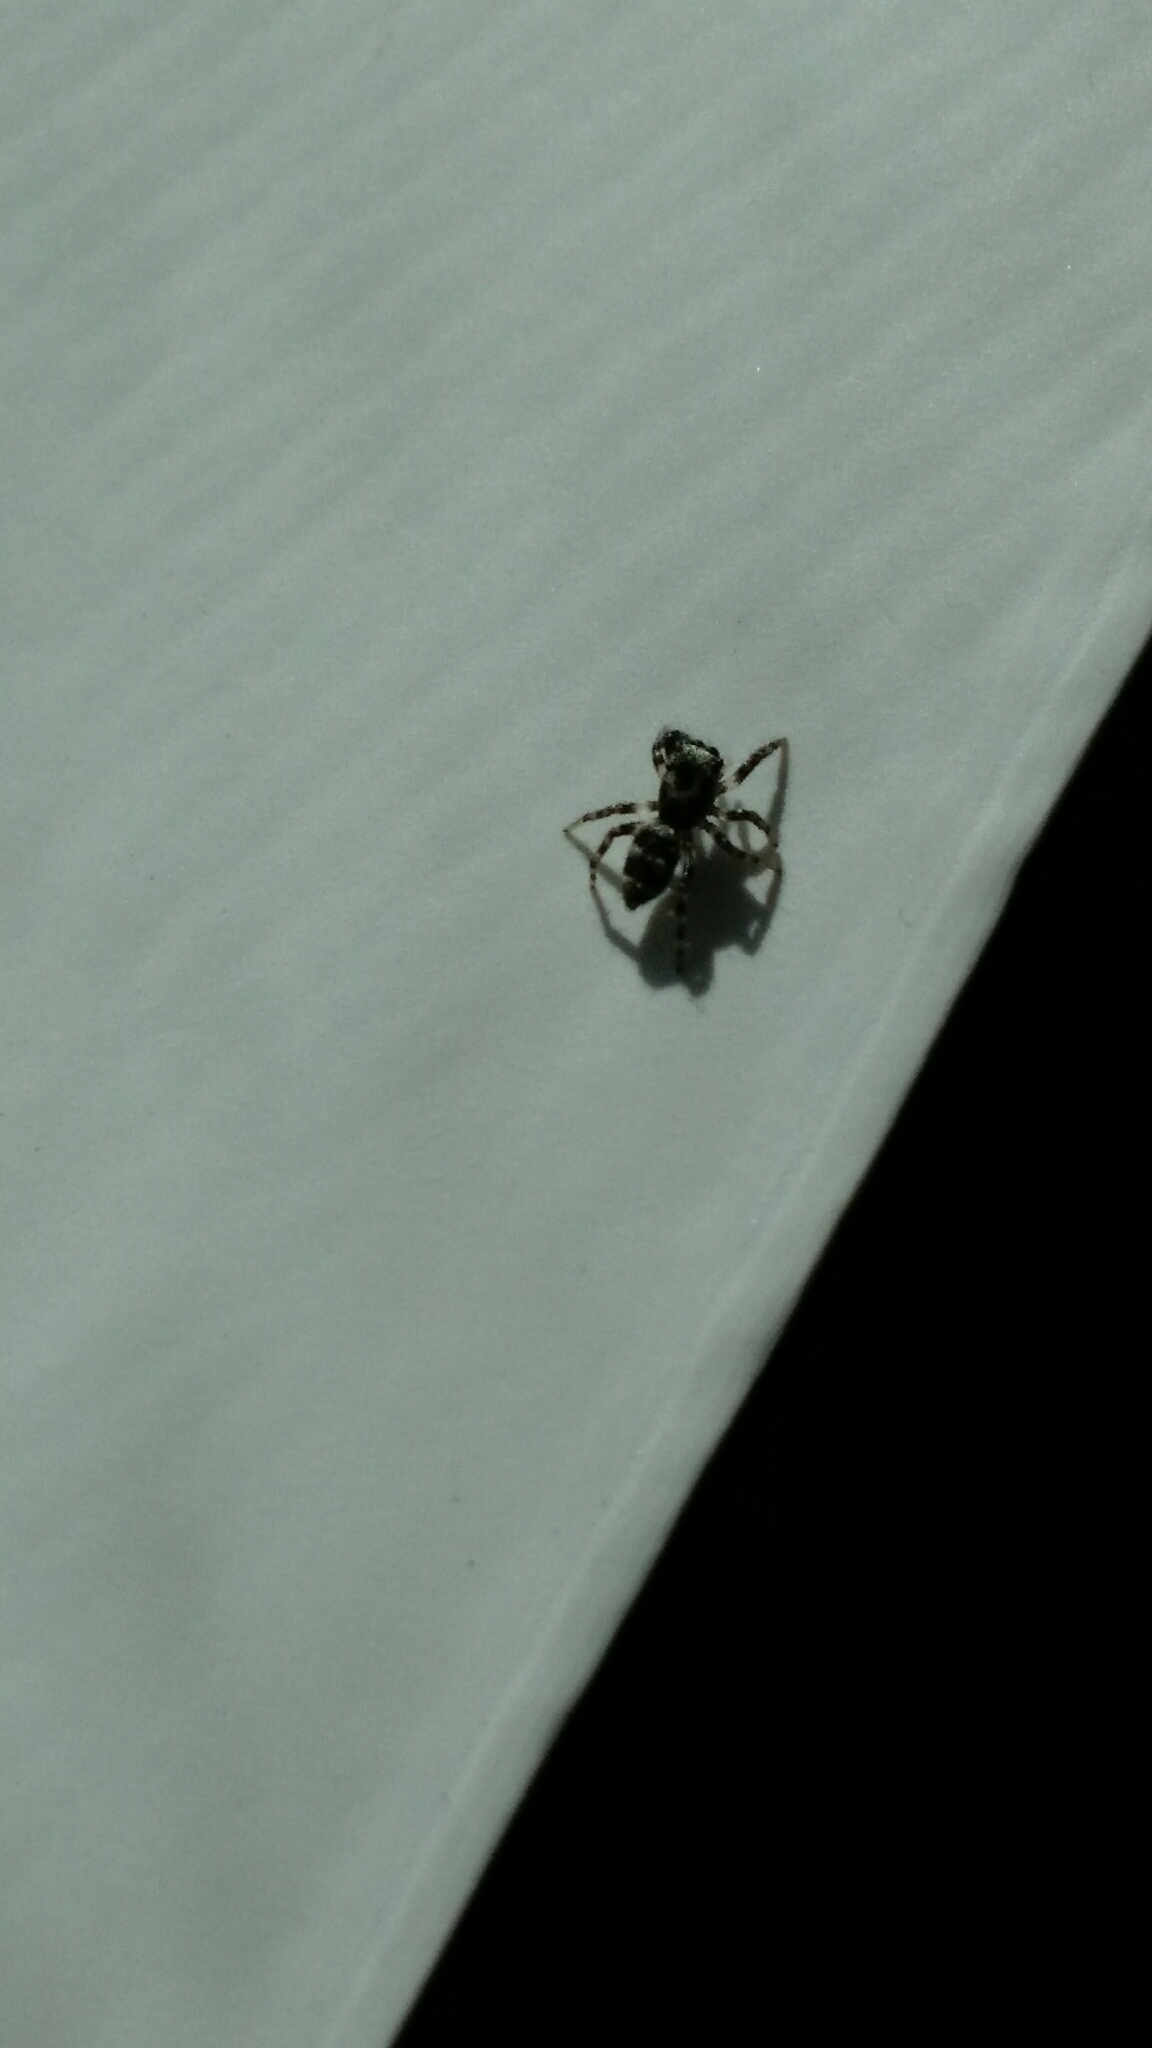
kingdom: Animalia
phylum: Arthropoda
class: Arachnida
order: Araneae
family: Salticidae
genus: Salticus
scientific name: Salticus scenicus
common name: Zebra jumper
